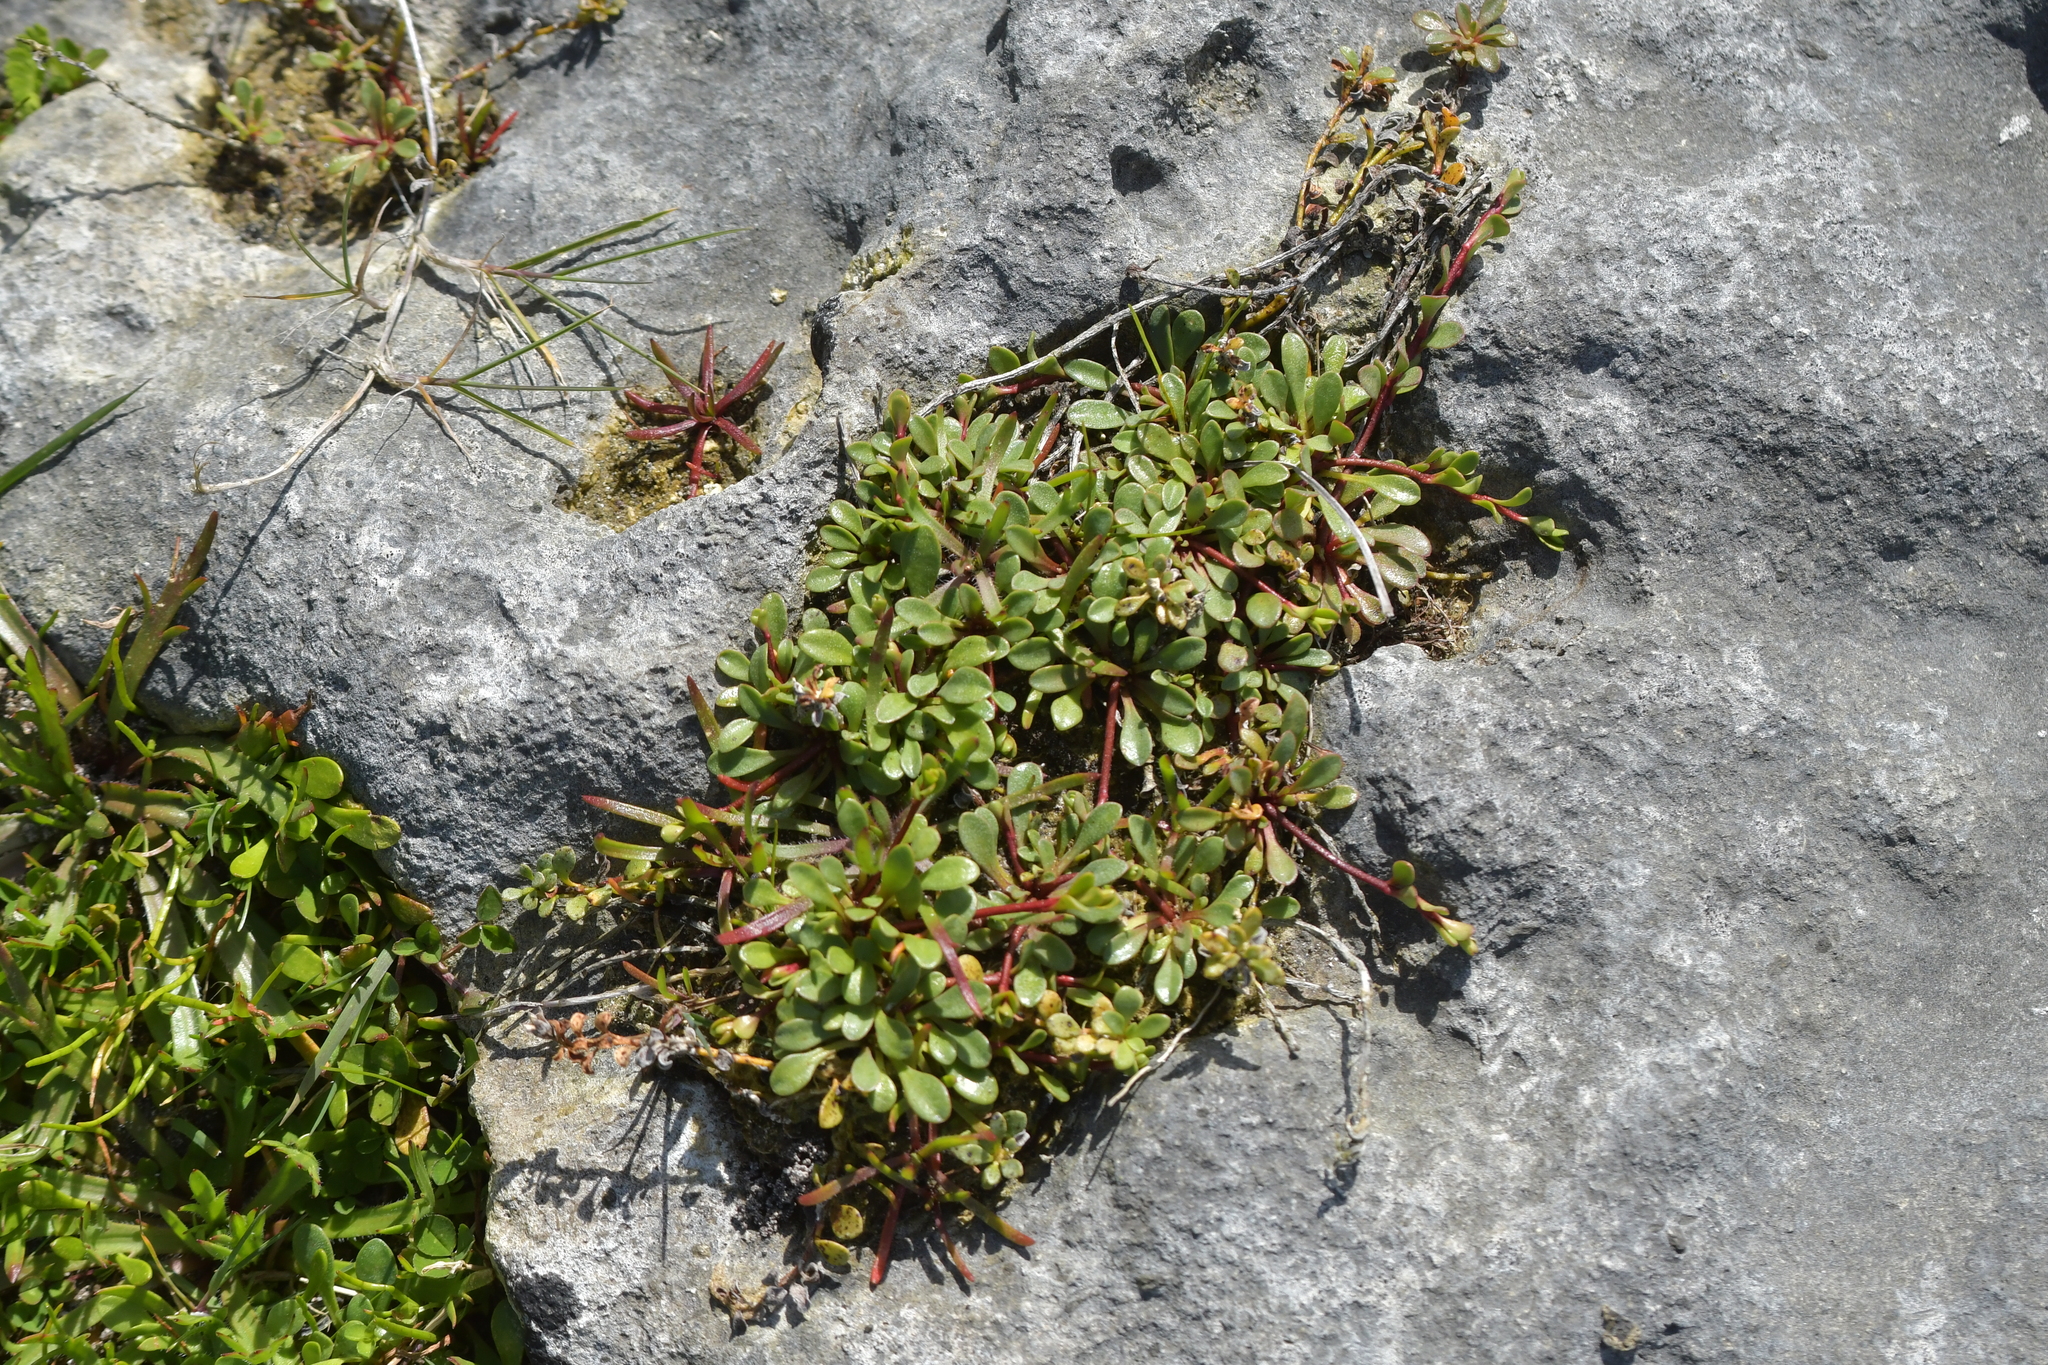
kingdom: Plantae
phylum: Tracheophyta
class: Magnoliopsida
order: Ericales
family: Primulaceae
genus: Samolus
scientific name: Samolus repens
